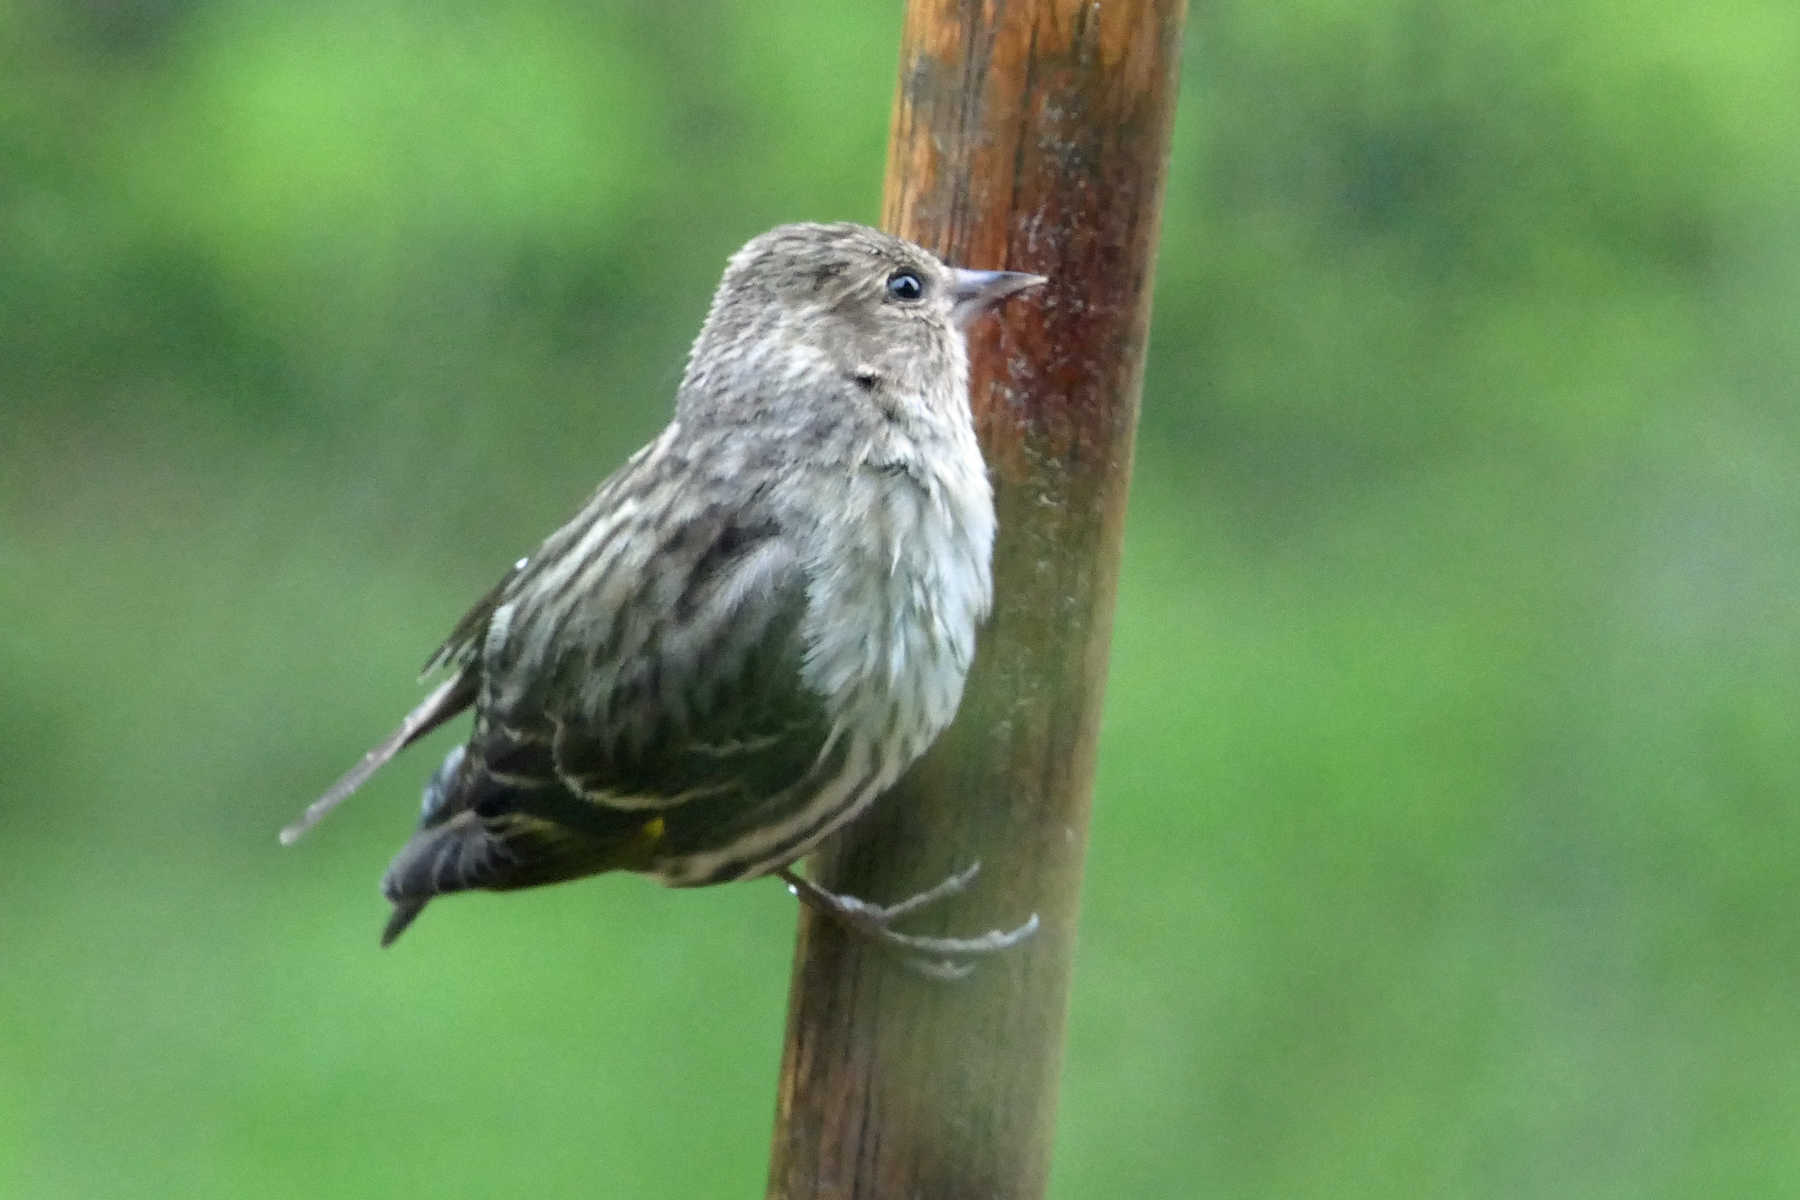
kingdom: Animalia
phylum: Chordata
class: Aves
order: Passeriformes
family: Fringillidae
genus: Spinus
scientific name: Spinus pinus
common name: Pine siskin
